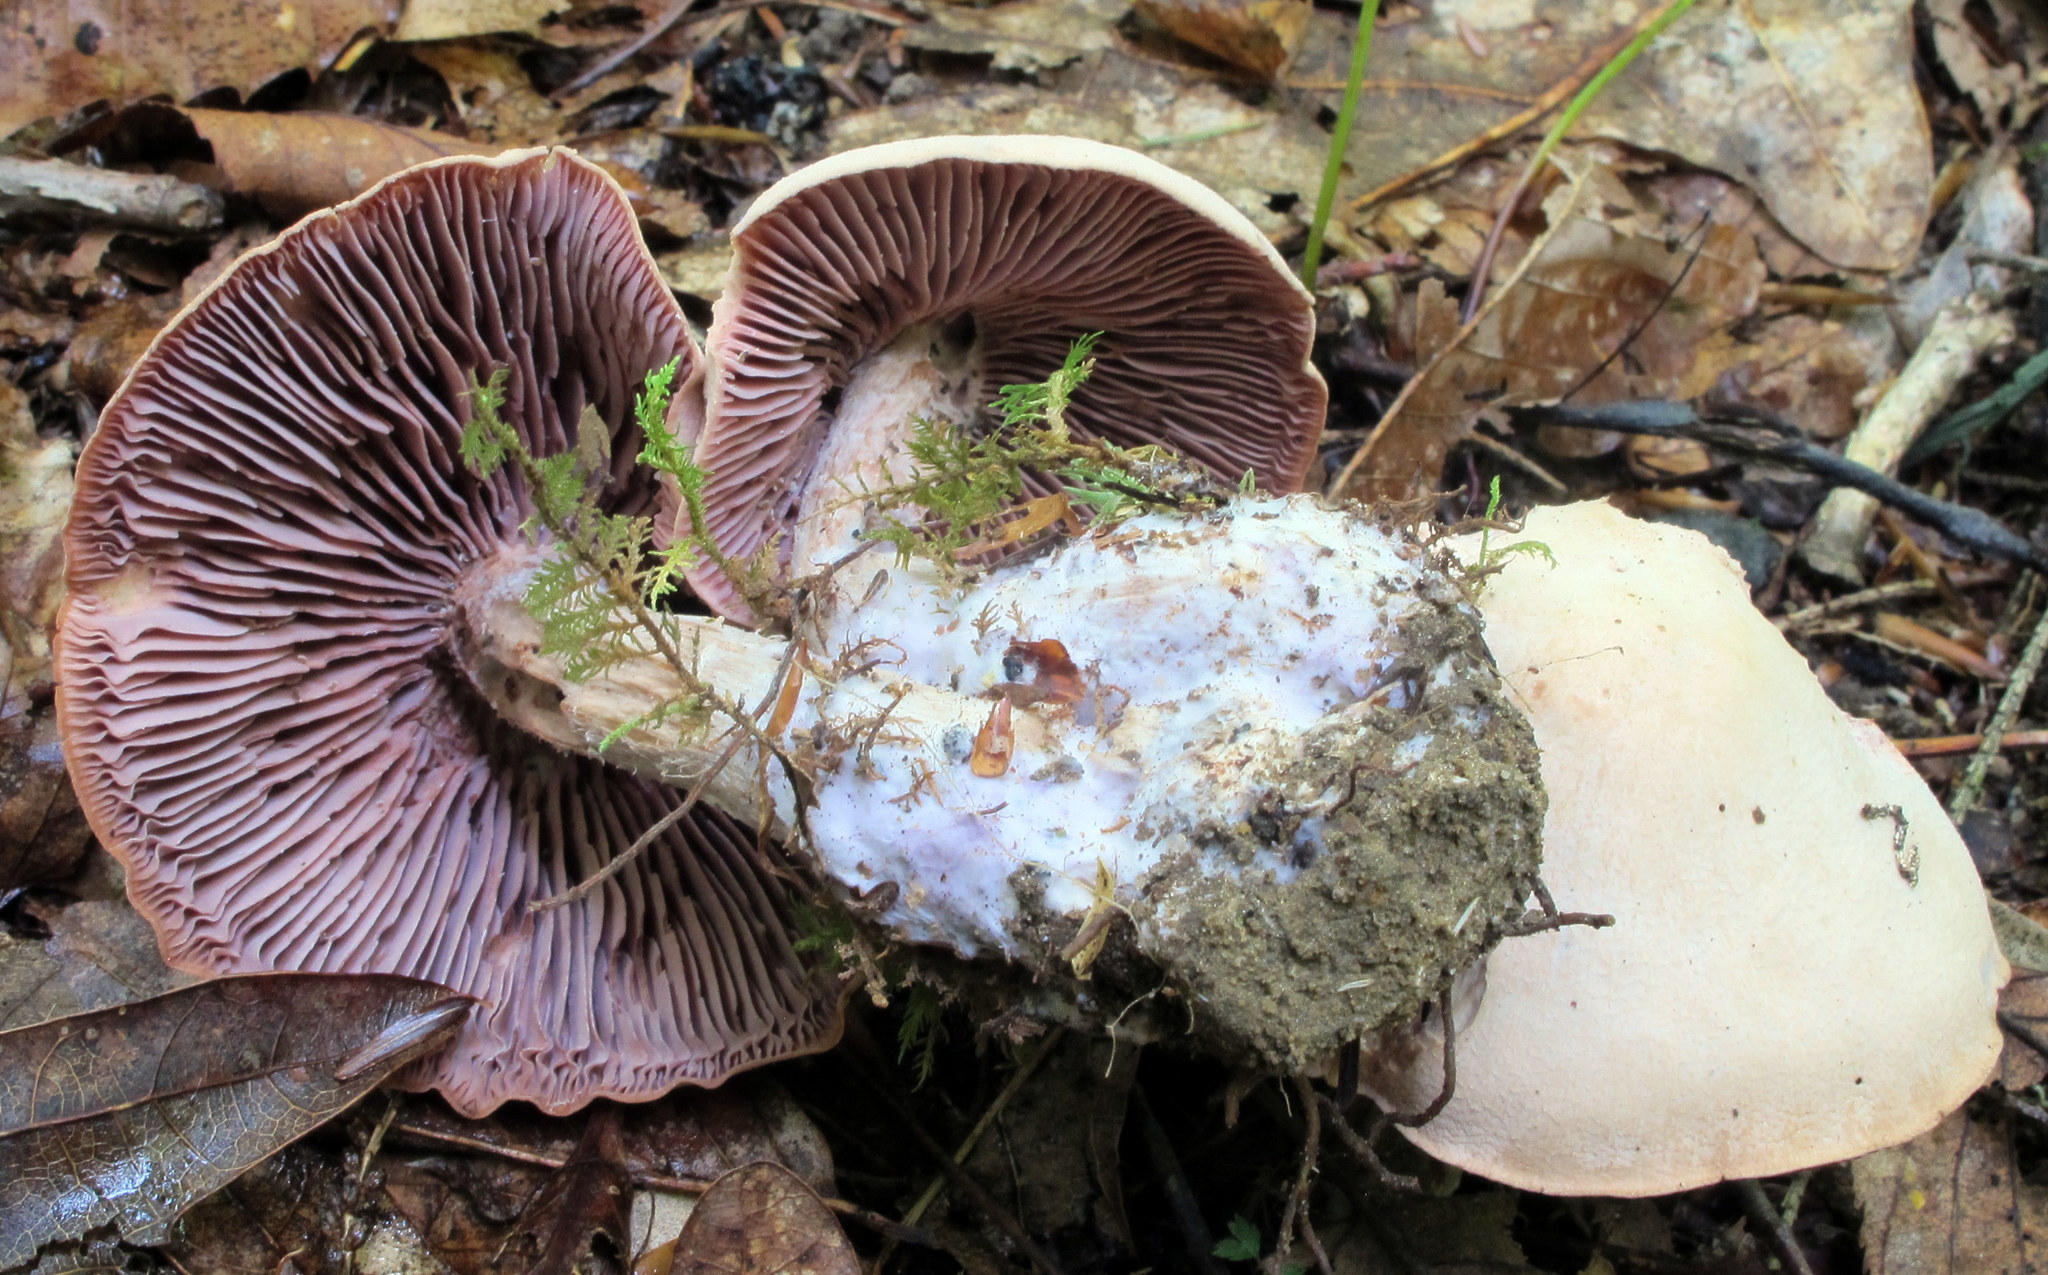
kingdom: Fungi
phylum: Basidiomycota
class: Agaricomycetes
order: Agaricales
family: Hydnangiaceae
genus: Laccaria
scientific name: Laccaria ochropurpurea
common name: Purple laccaria
